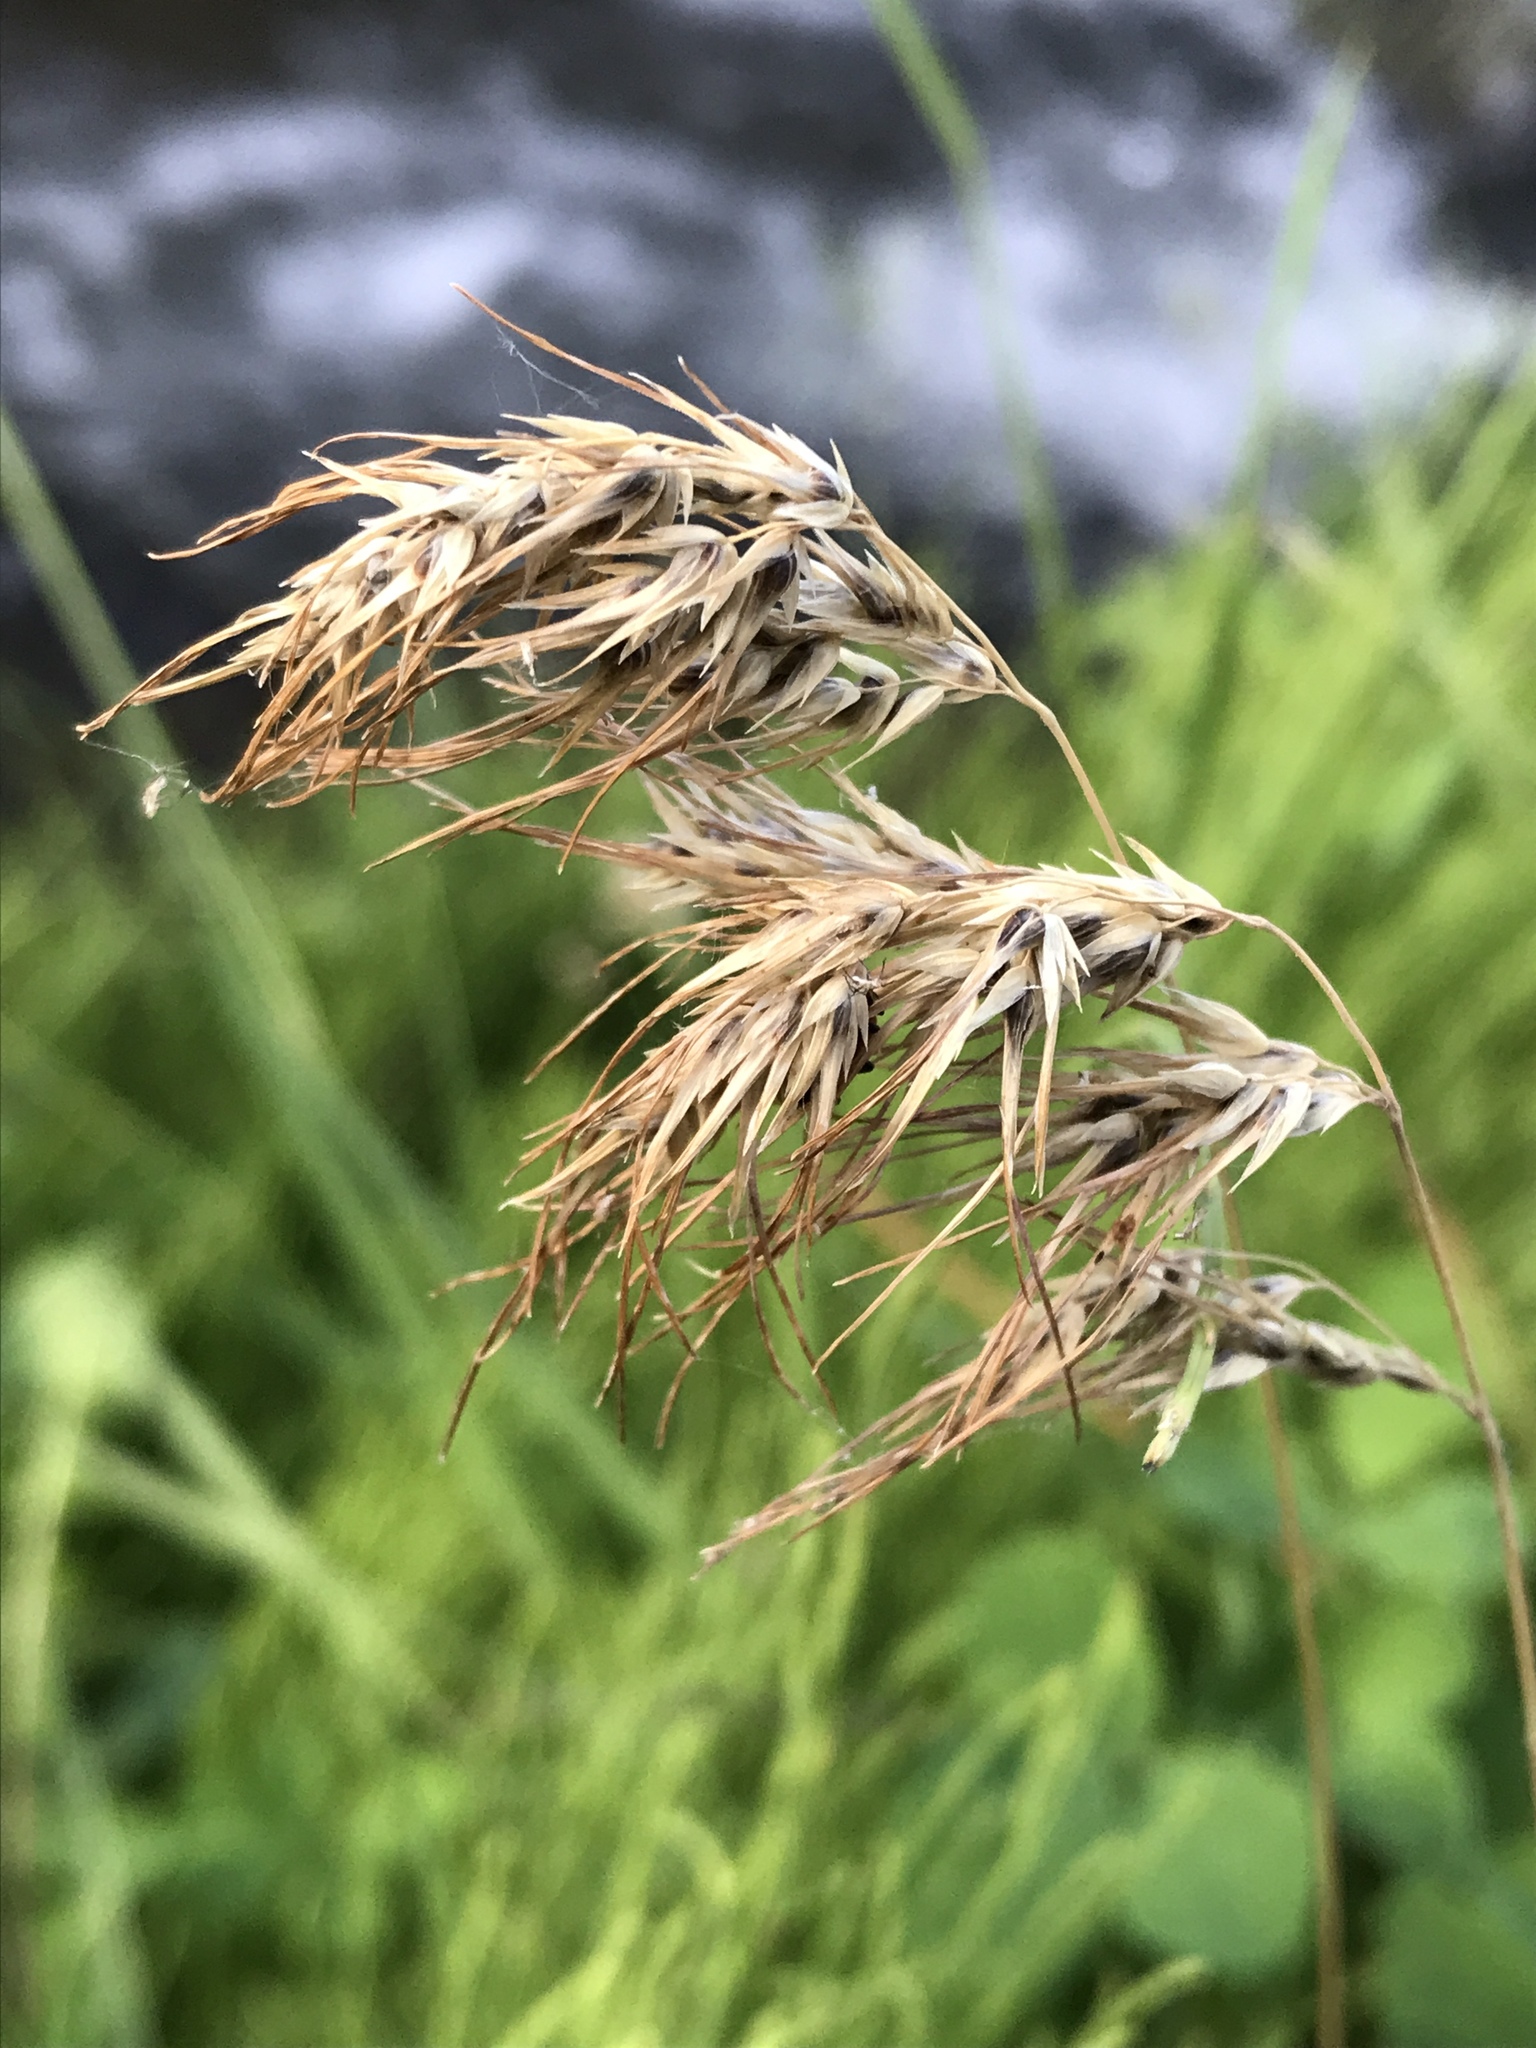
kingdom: Plantae
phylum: Tracheophyta
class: Liliopsida
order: Poales
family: Poaceae
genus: Poa
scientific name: Poa bulbosa
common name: Bulbous bluegrass
